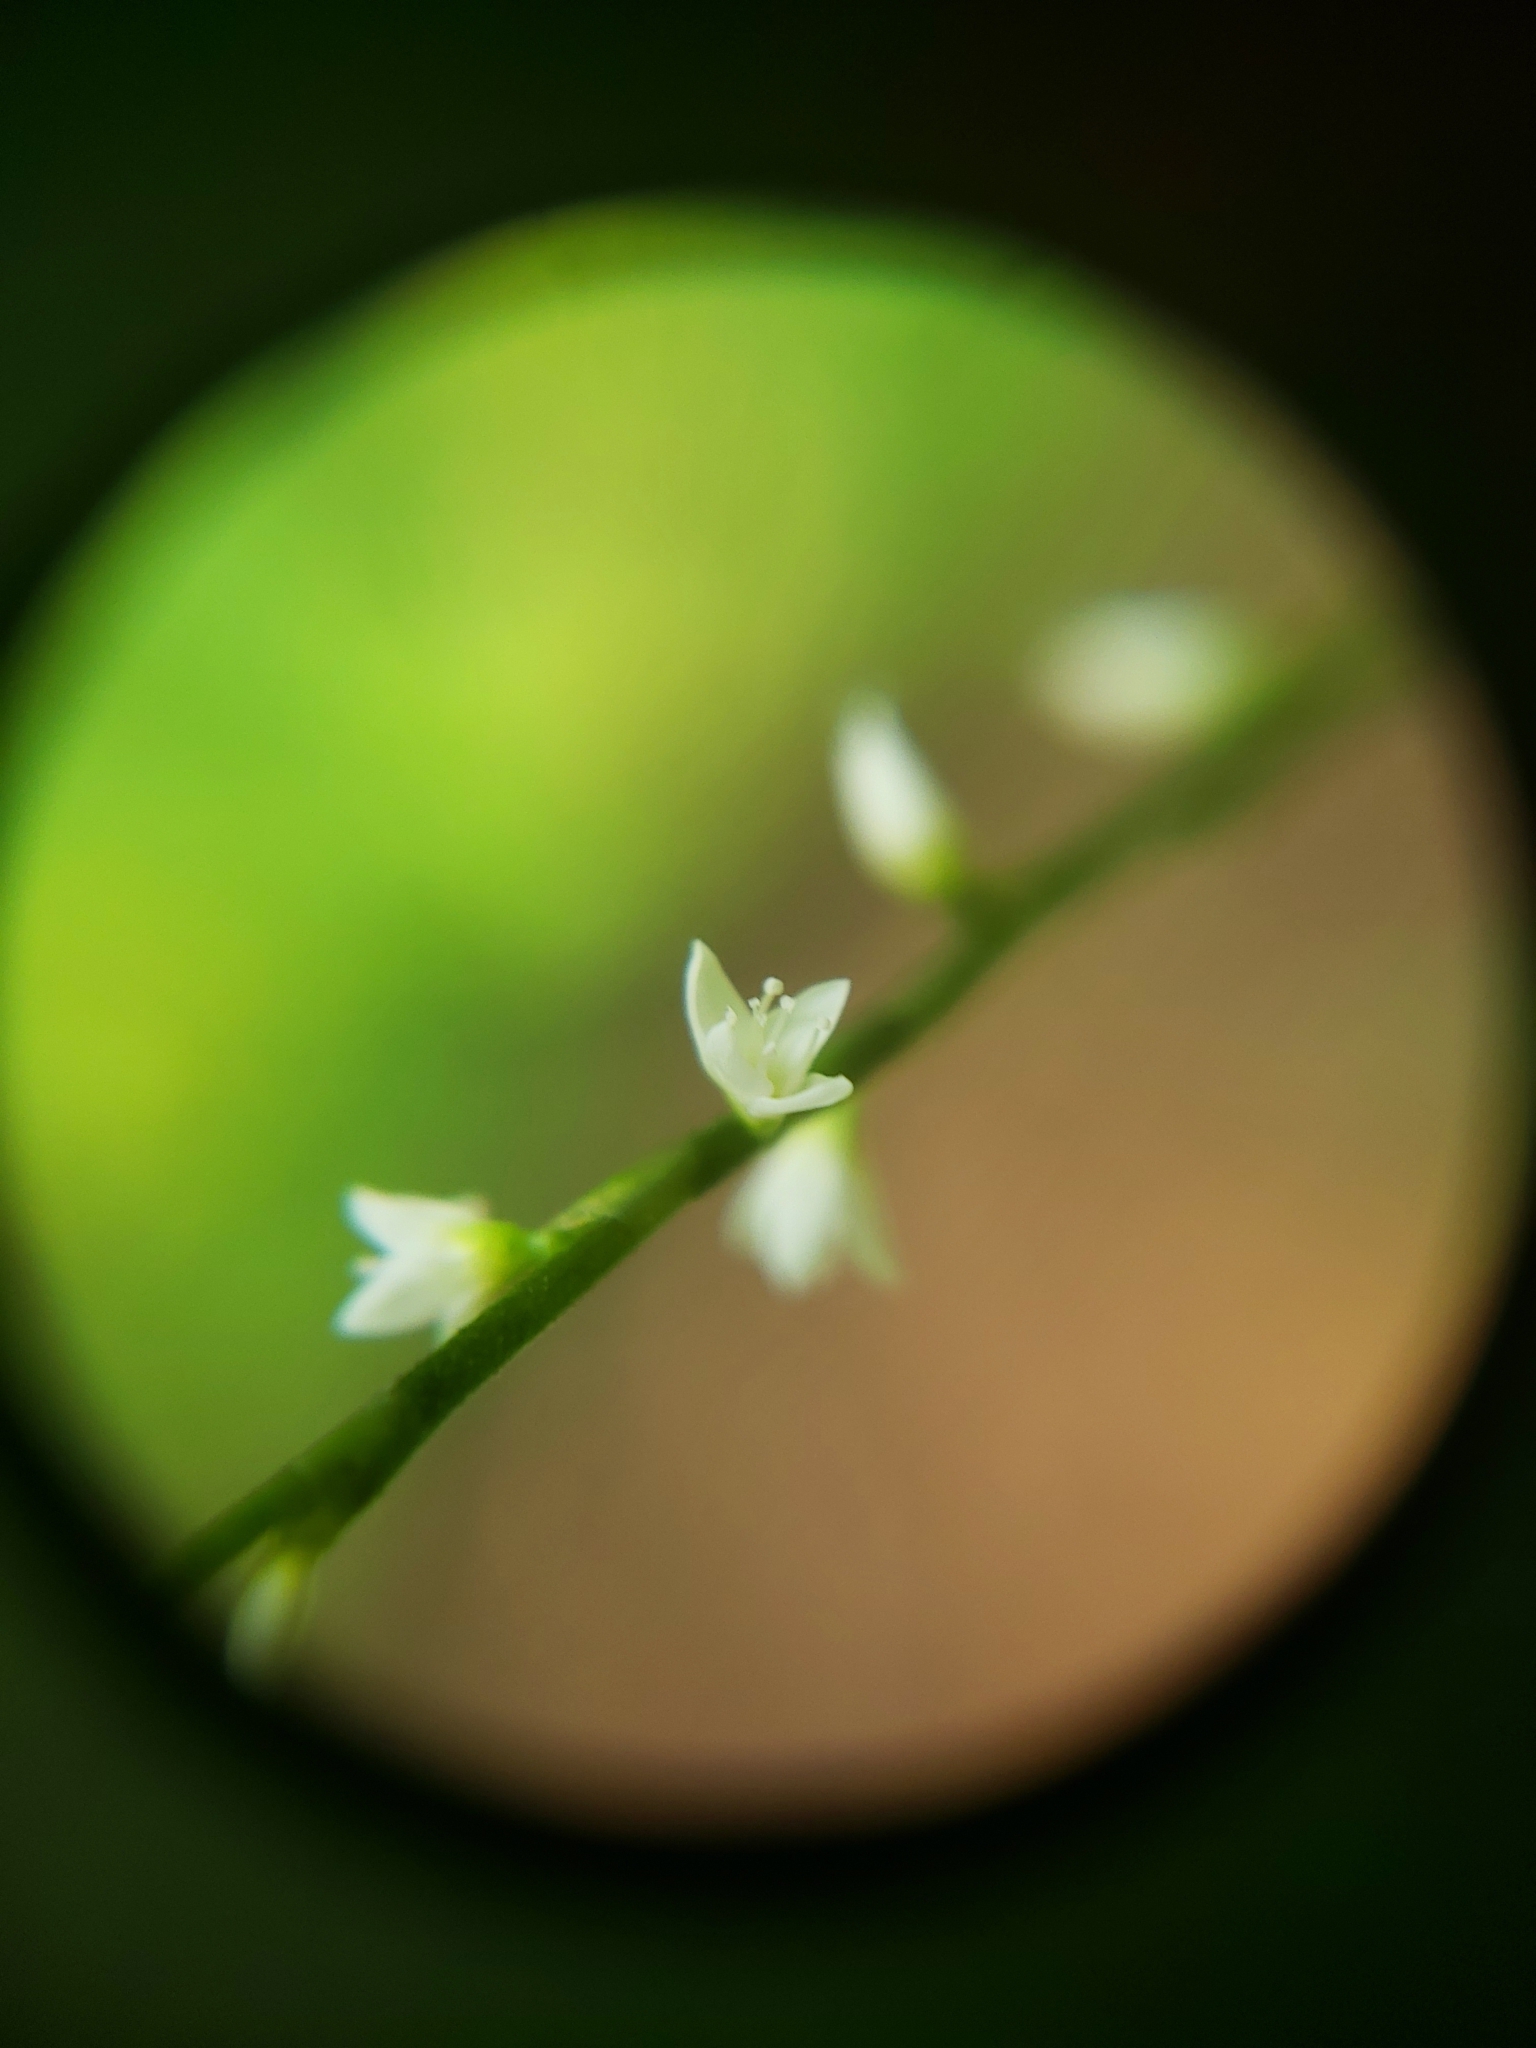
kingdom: Plantae
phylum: Tracheophyta
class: Magnoliopsida
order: Caryophyllales
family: Polygonaceae
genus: Persicaria
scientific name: Persicaria virginiana
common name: Jumpseed
